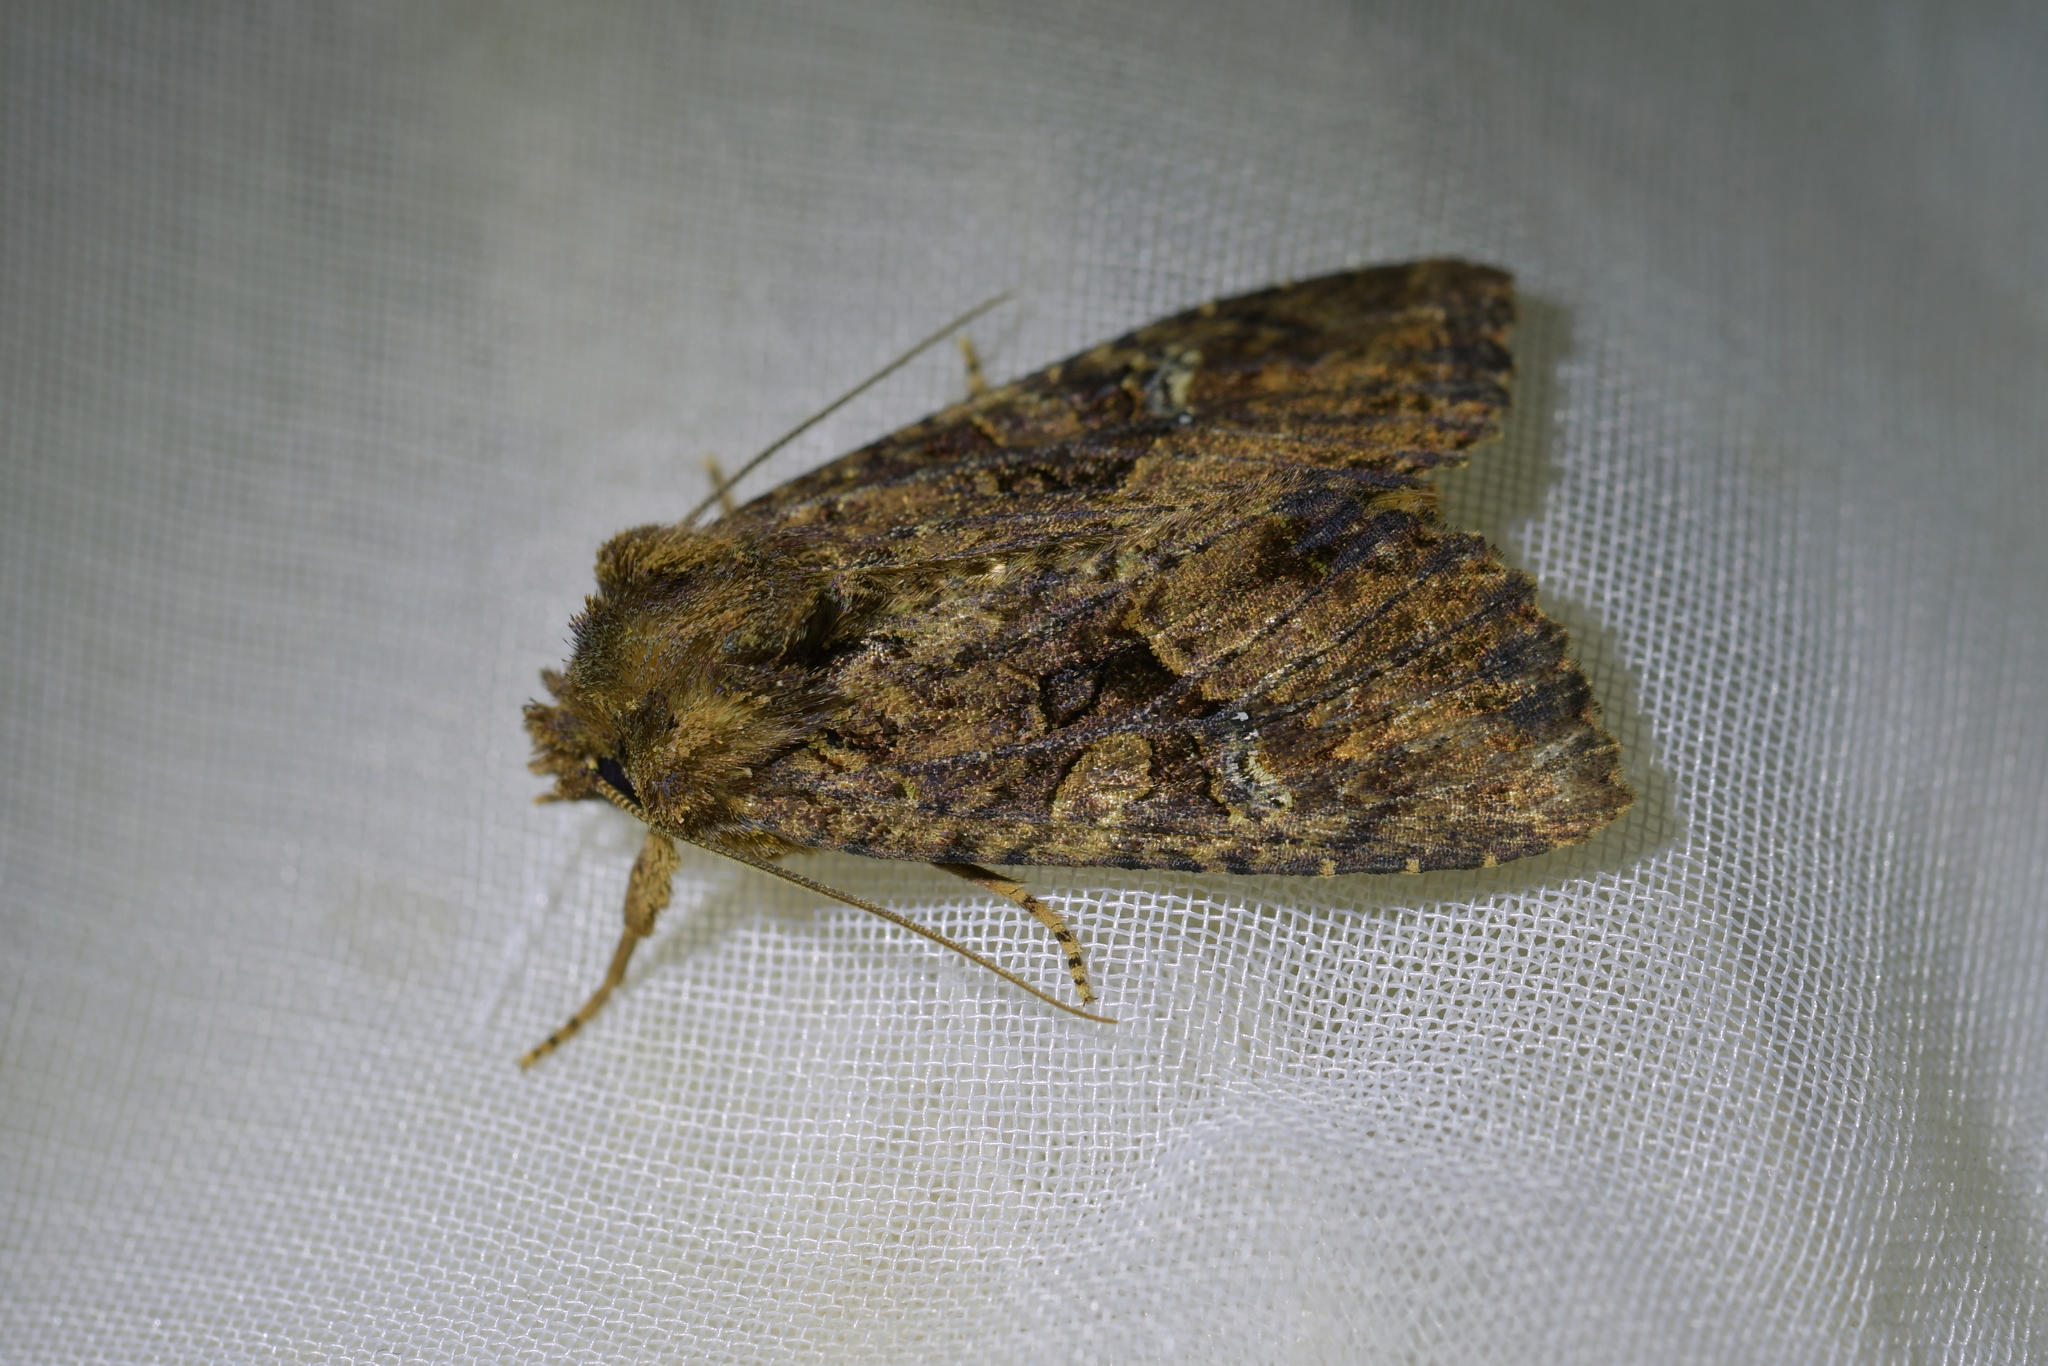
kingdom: Animalia
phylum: Arthropoda
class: Insecta
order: Lepidoptera
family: Noctuidae
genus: Meterana
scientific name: Meterana ochthistis
